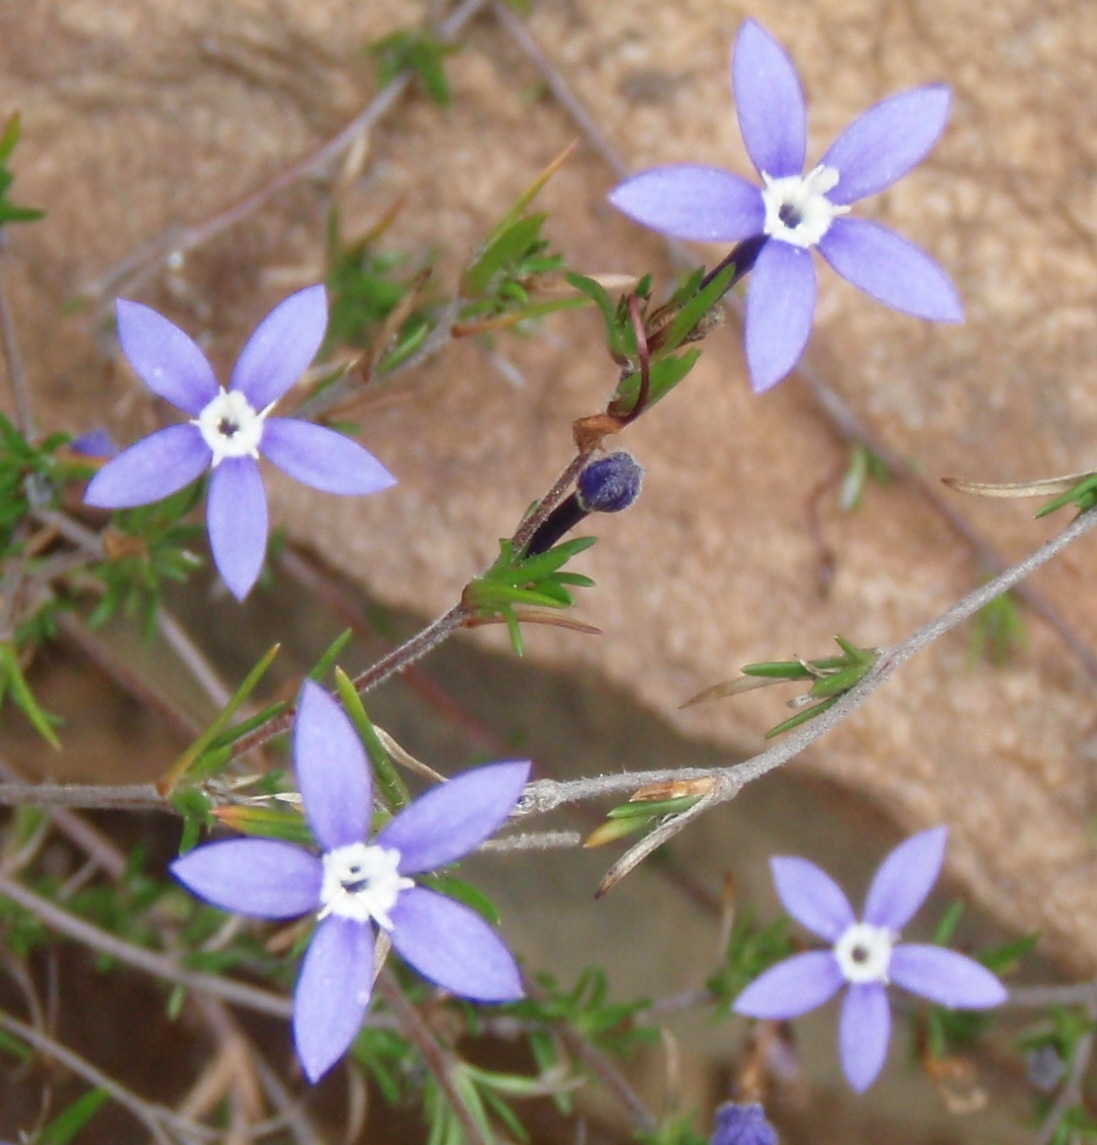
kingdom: Plantae
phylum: Tracheophyta
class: Magnoliopsida
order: Asterales
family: Campanulaceae
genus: Theilera
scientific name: Theilera guthriei
